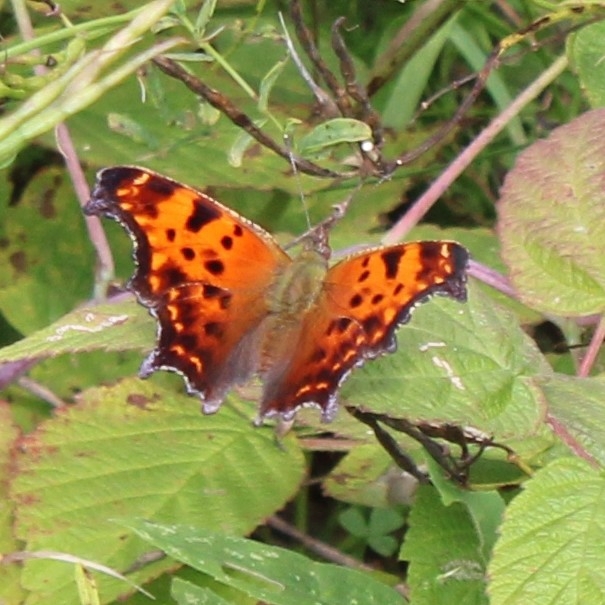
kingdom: Animalia
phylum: Arthropoda
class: Insecta
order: Lepidoptera
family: Nymphalidae
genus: Polygonia
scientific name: Polygonia comma
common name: Eastern comma
